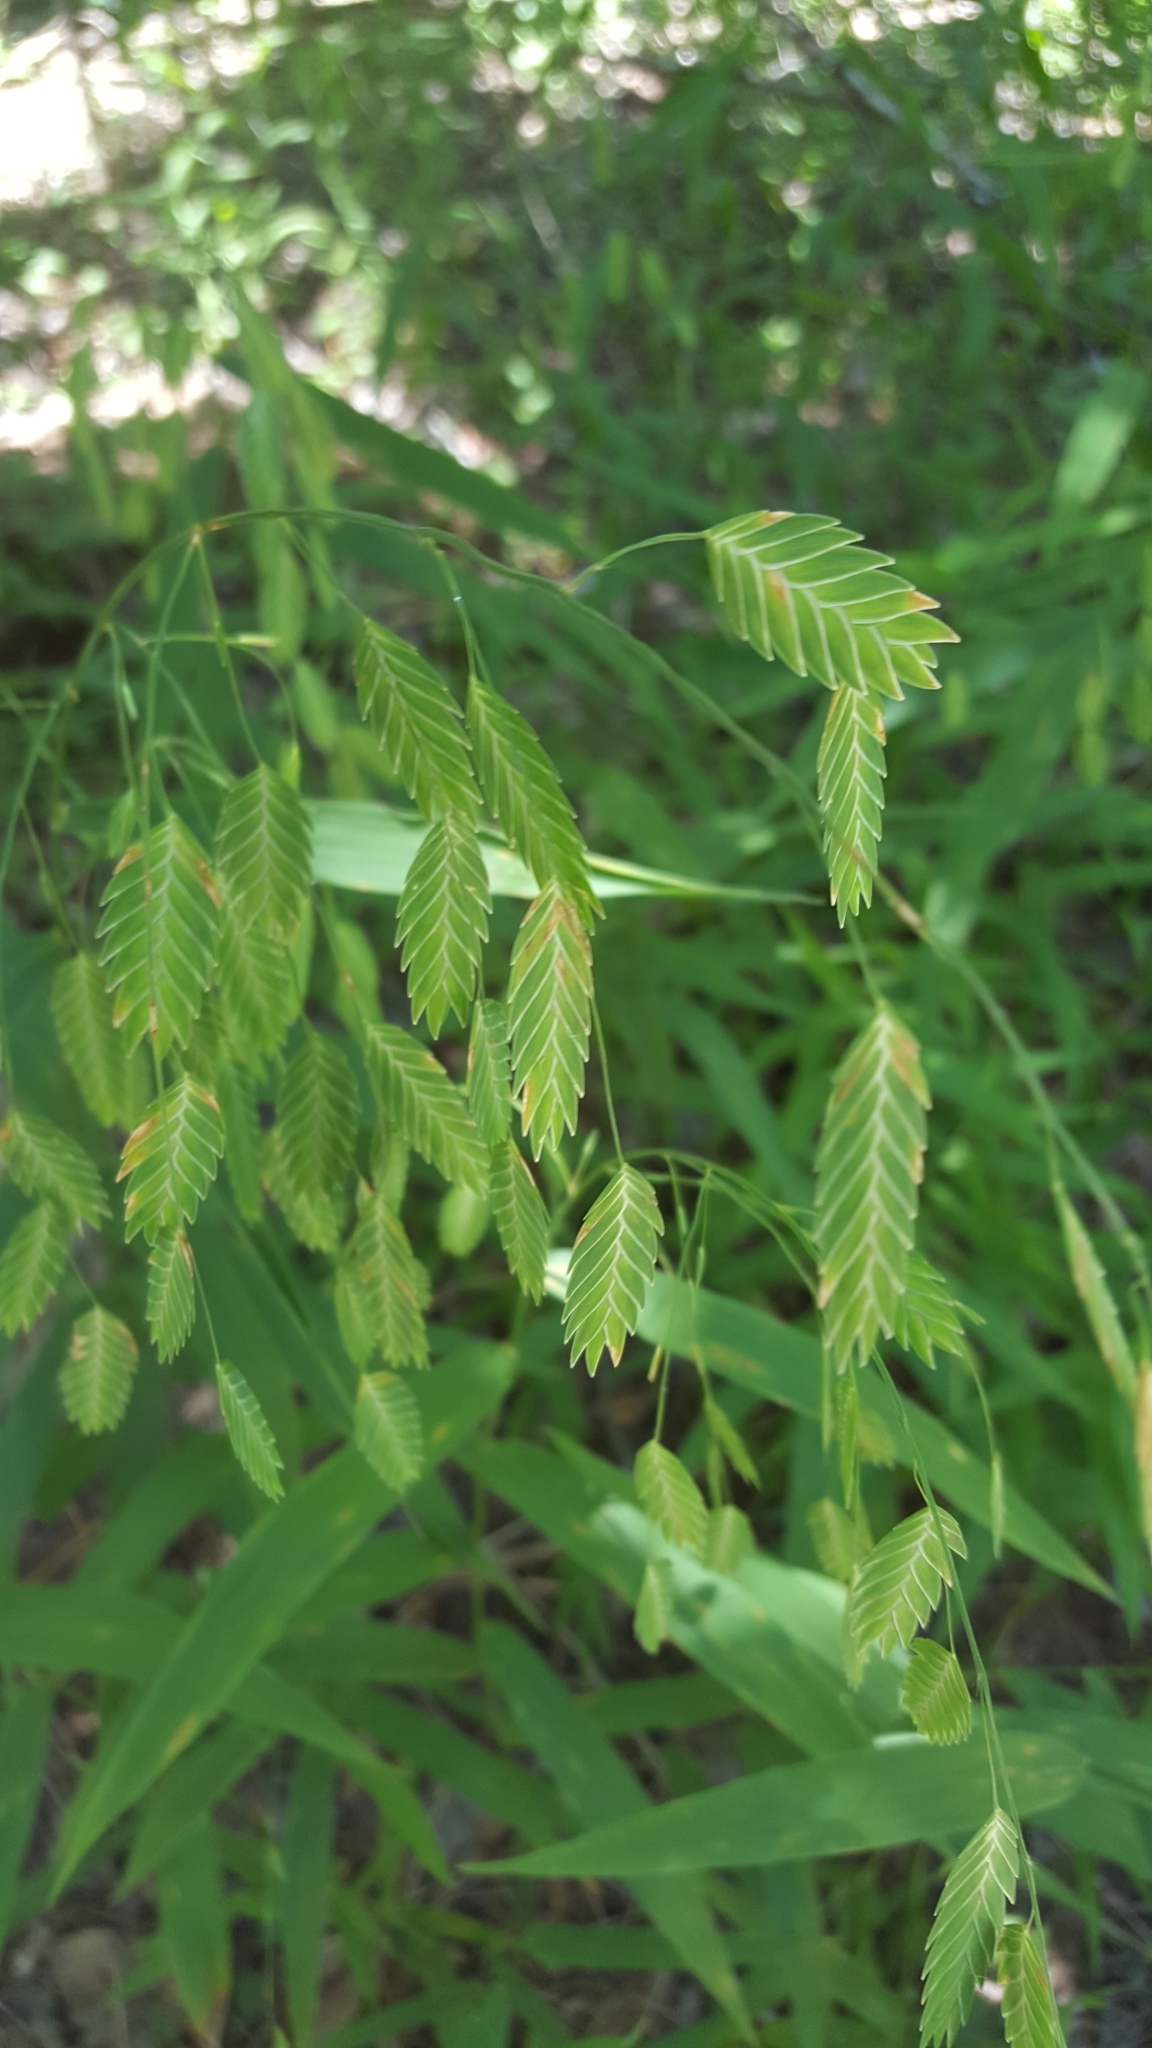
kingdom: Plantae
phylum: Tracheophyta
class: Liliopsida
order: Poales
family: Poaceae
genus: Chasmanthium
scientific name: Chasmanthium latifolium
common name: Broad-leaved chasmanthium
